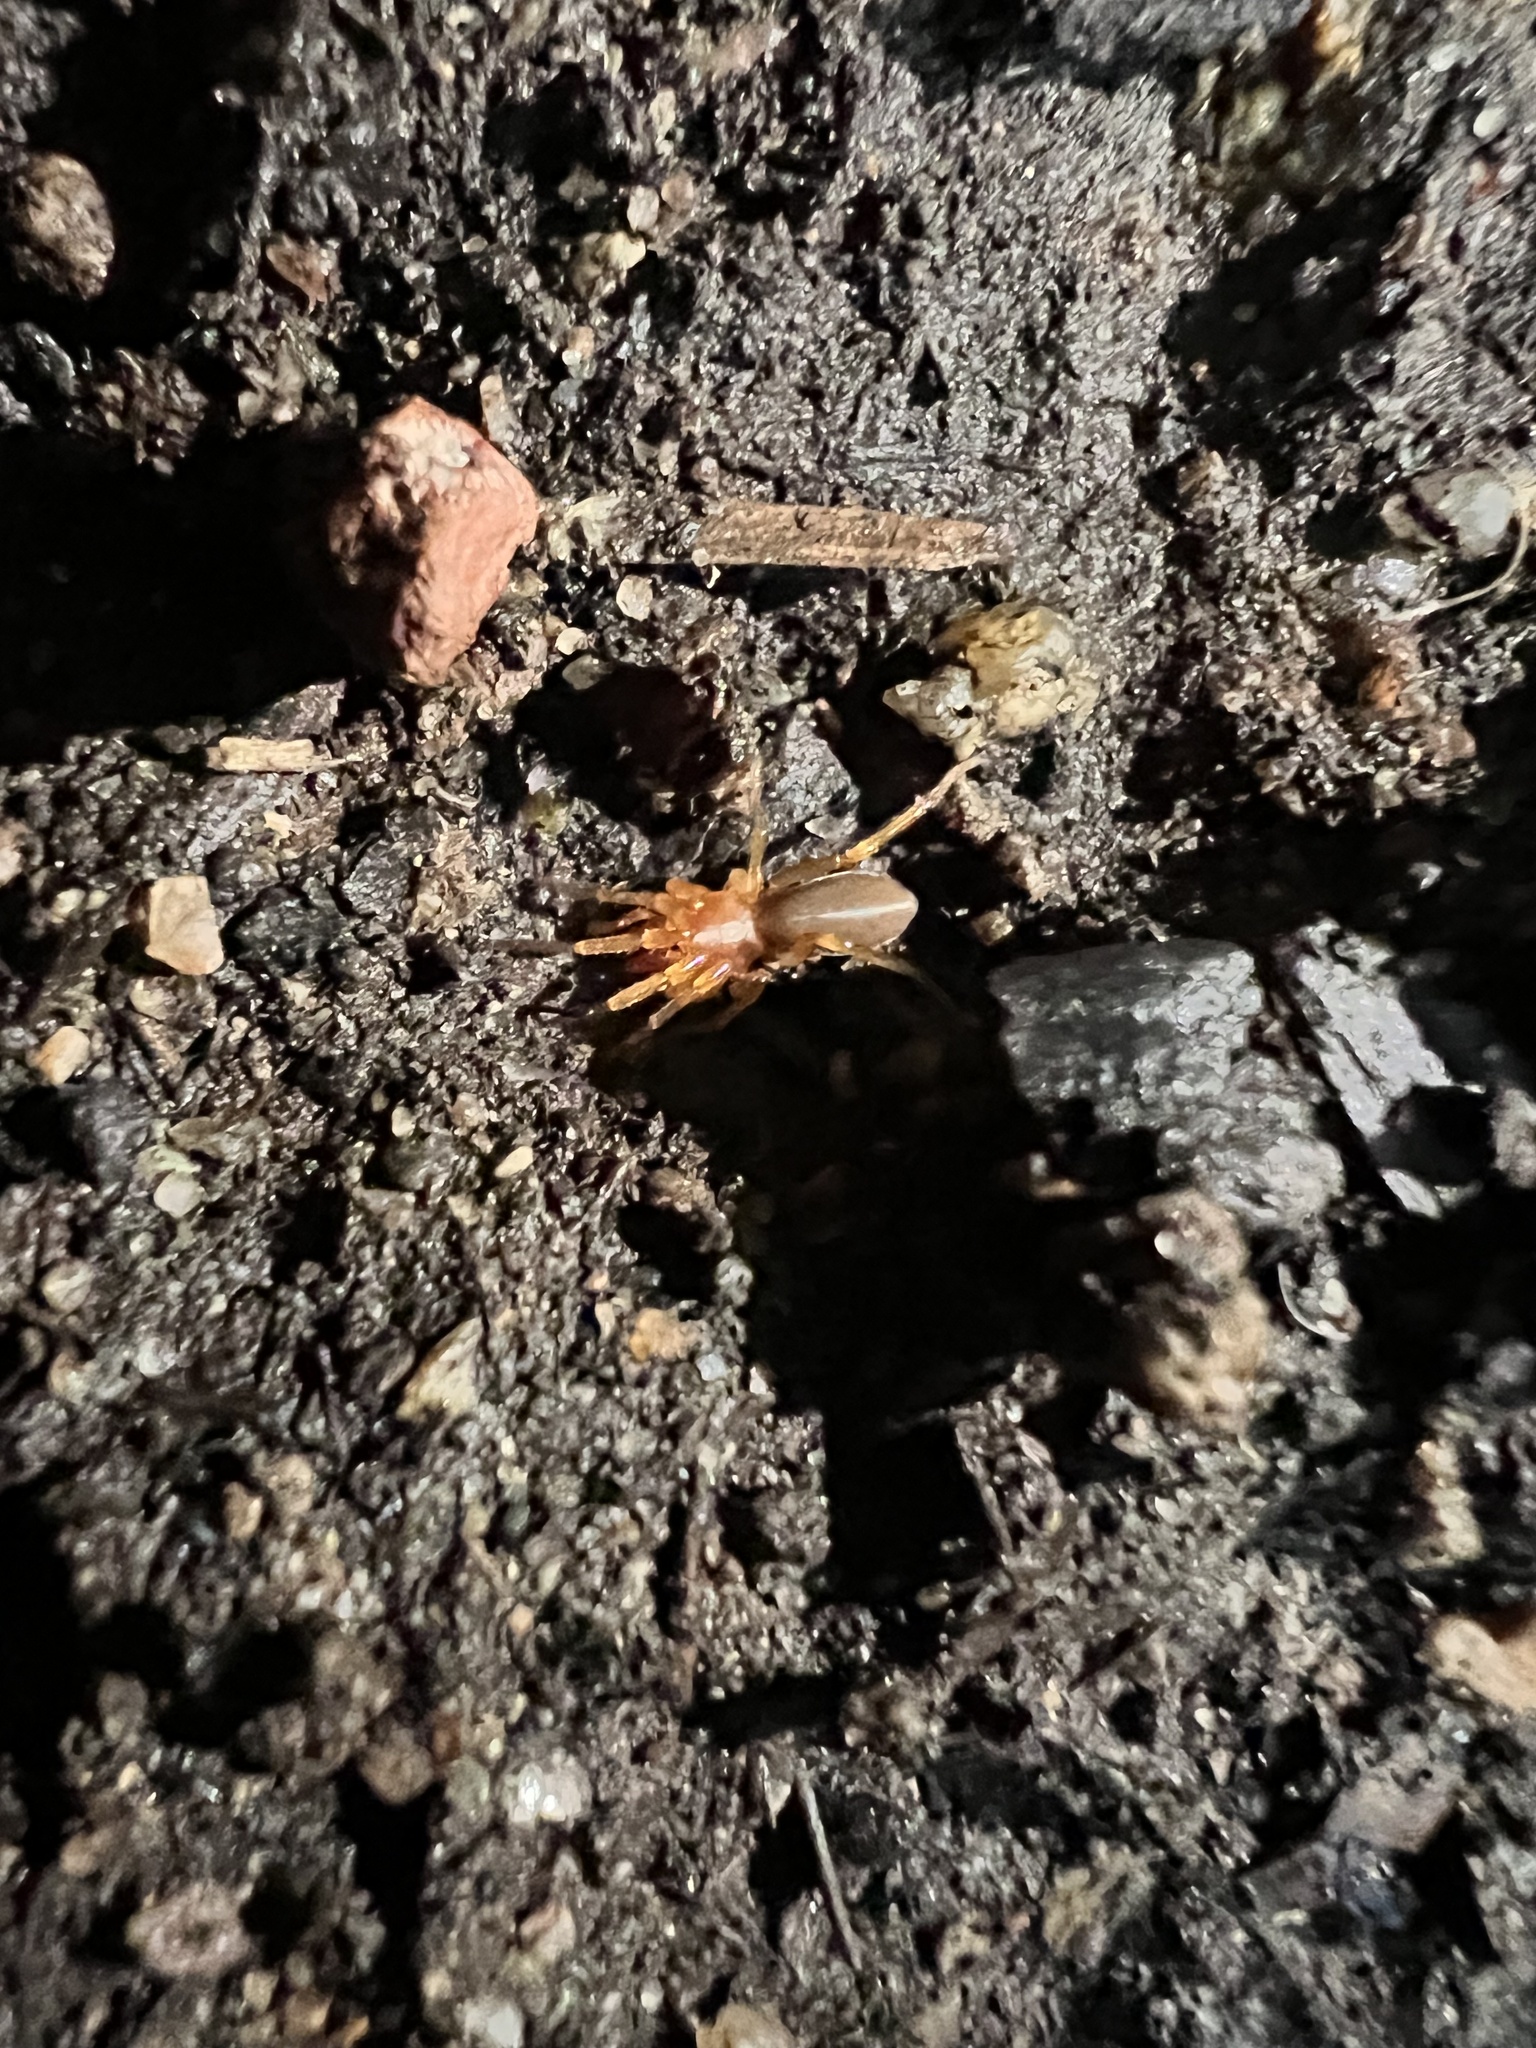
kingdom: Animalia
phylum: Arthropoda
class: Arachnida
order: Araneae
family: Dysderidae
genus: Dysdera
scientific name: Dysdera crocata
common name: Woodlouse spider
